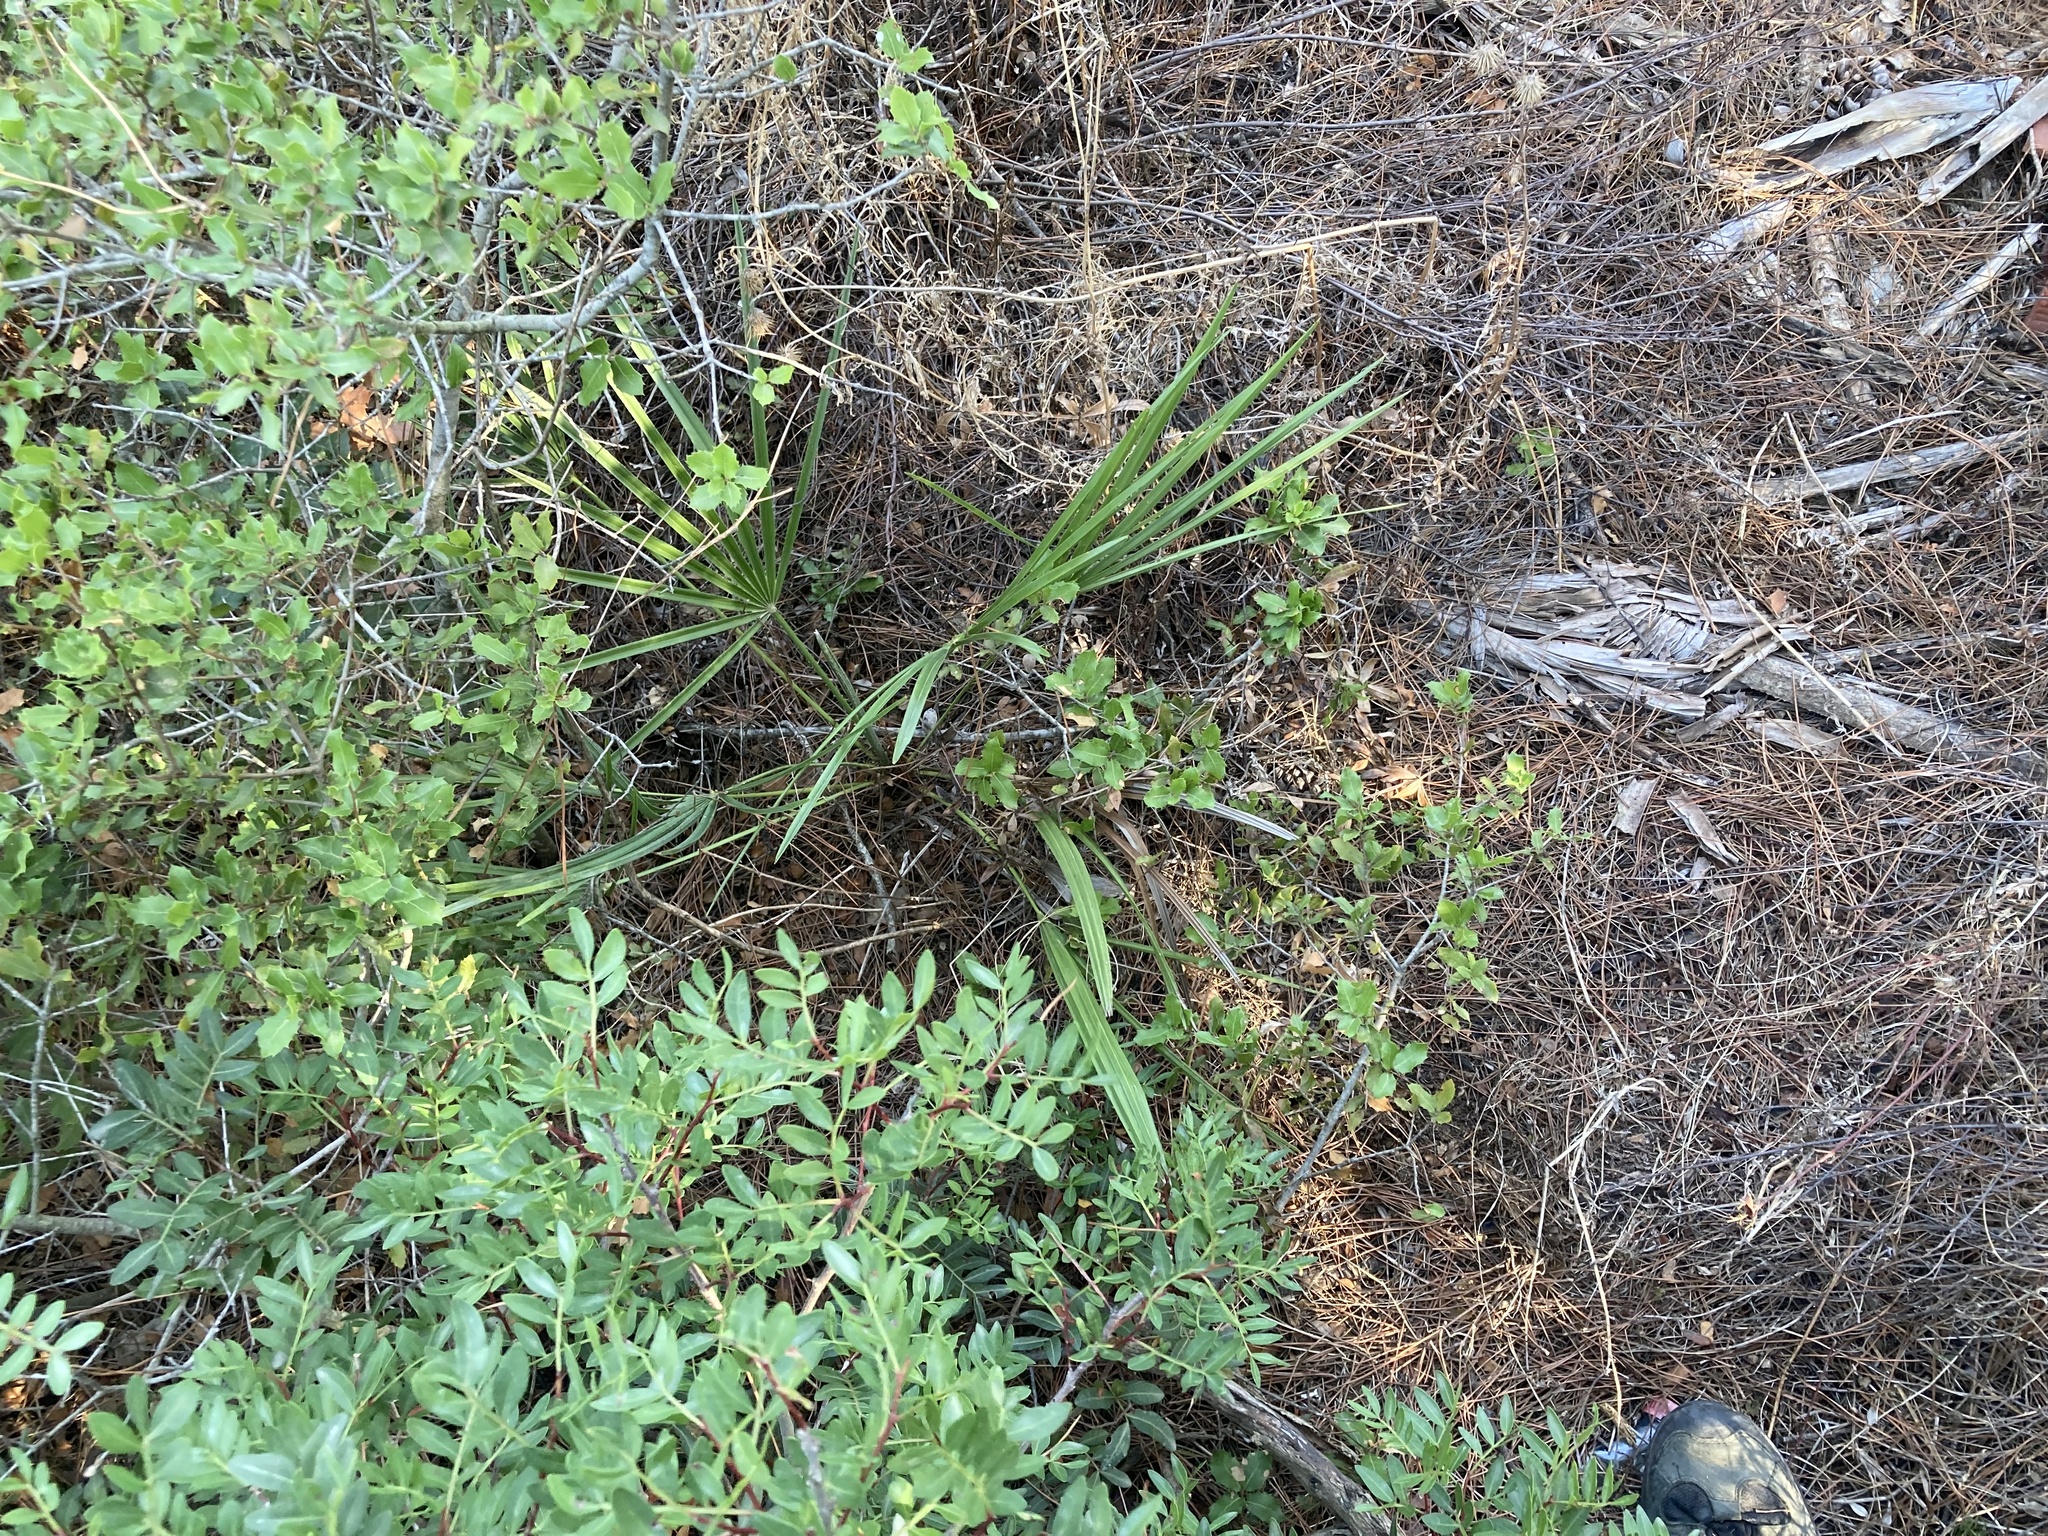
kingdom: Plantae
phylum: Tracheophyta
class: Liliopsida
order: Arecales
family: Arecaceae
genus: Chamaerops
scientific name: Chamaerops humilis
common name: Dwarf fan palm
